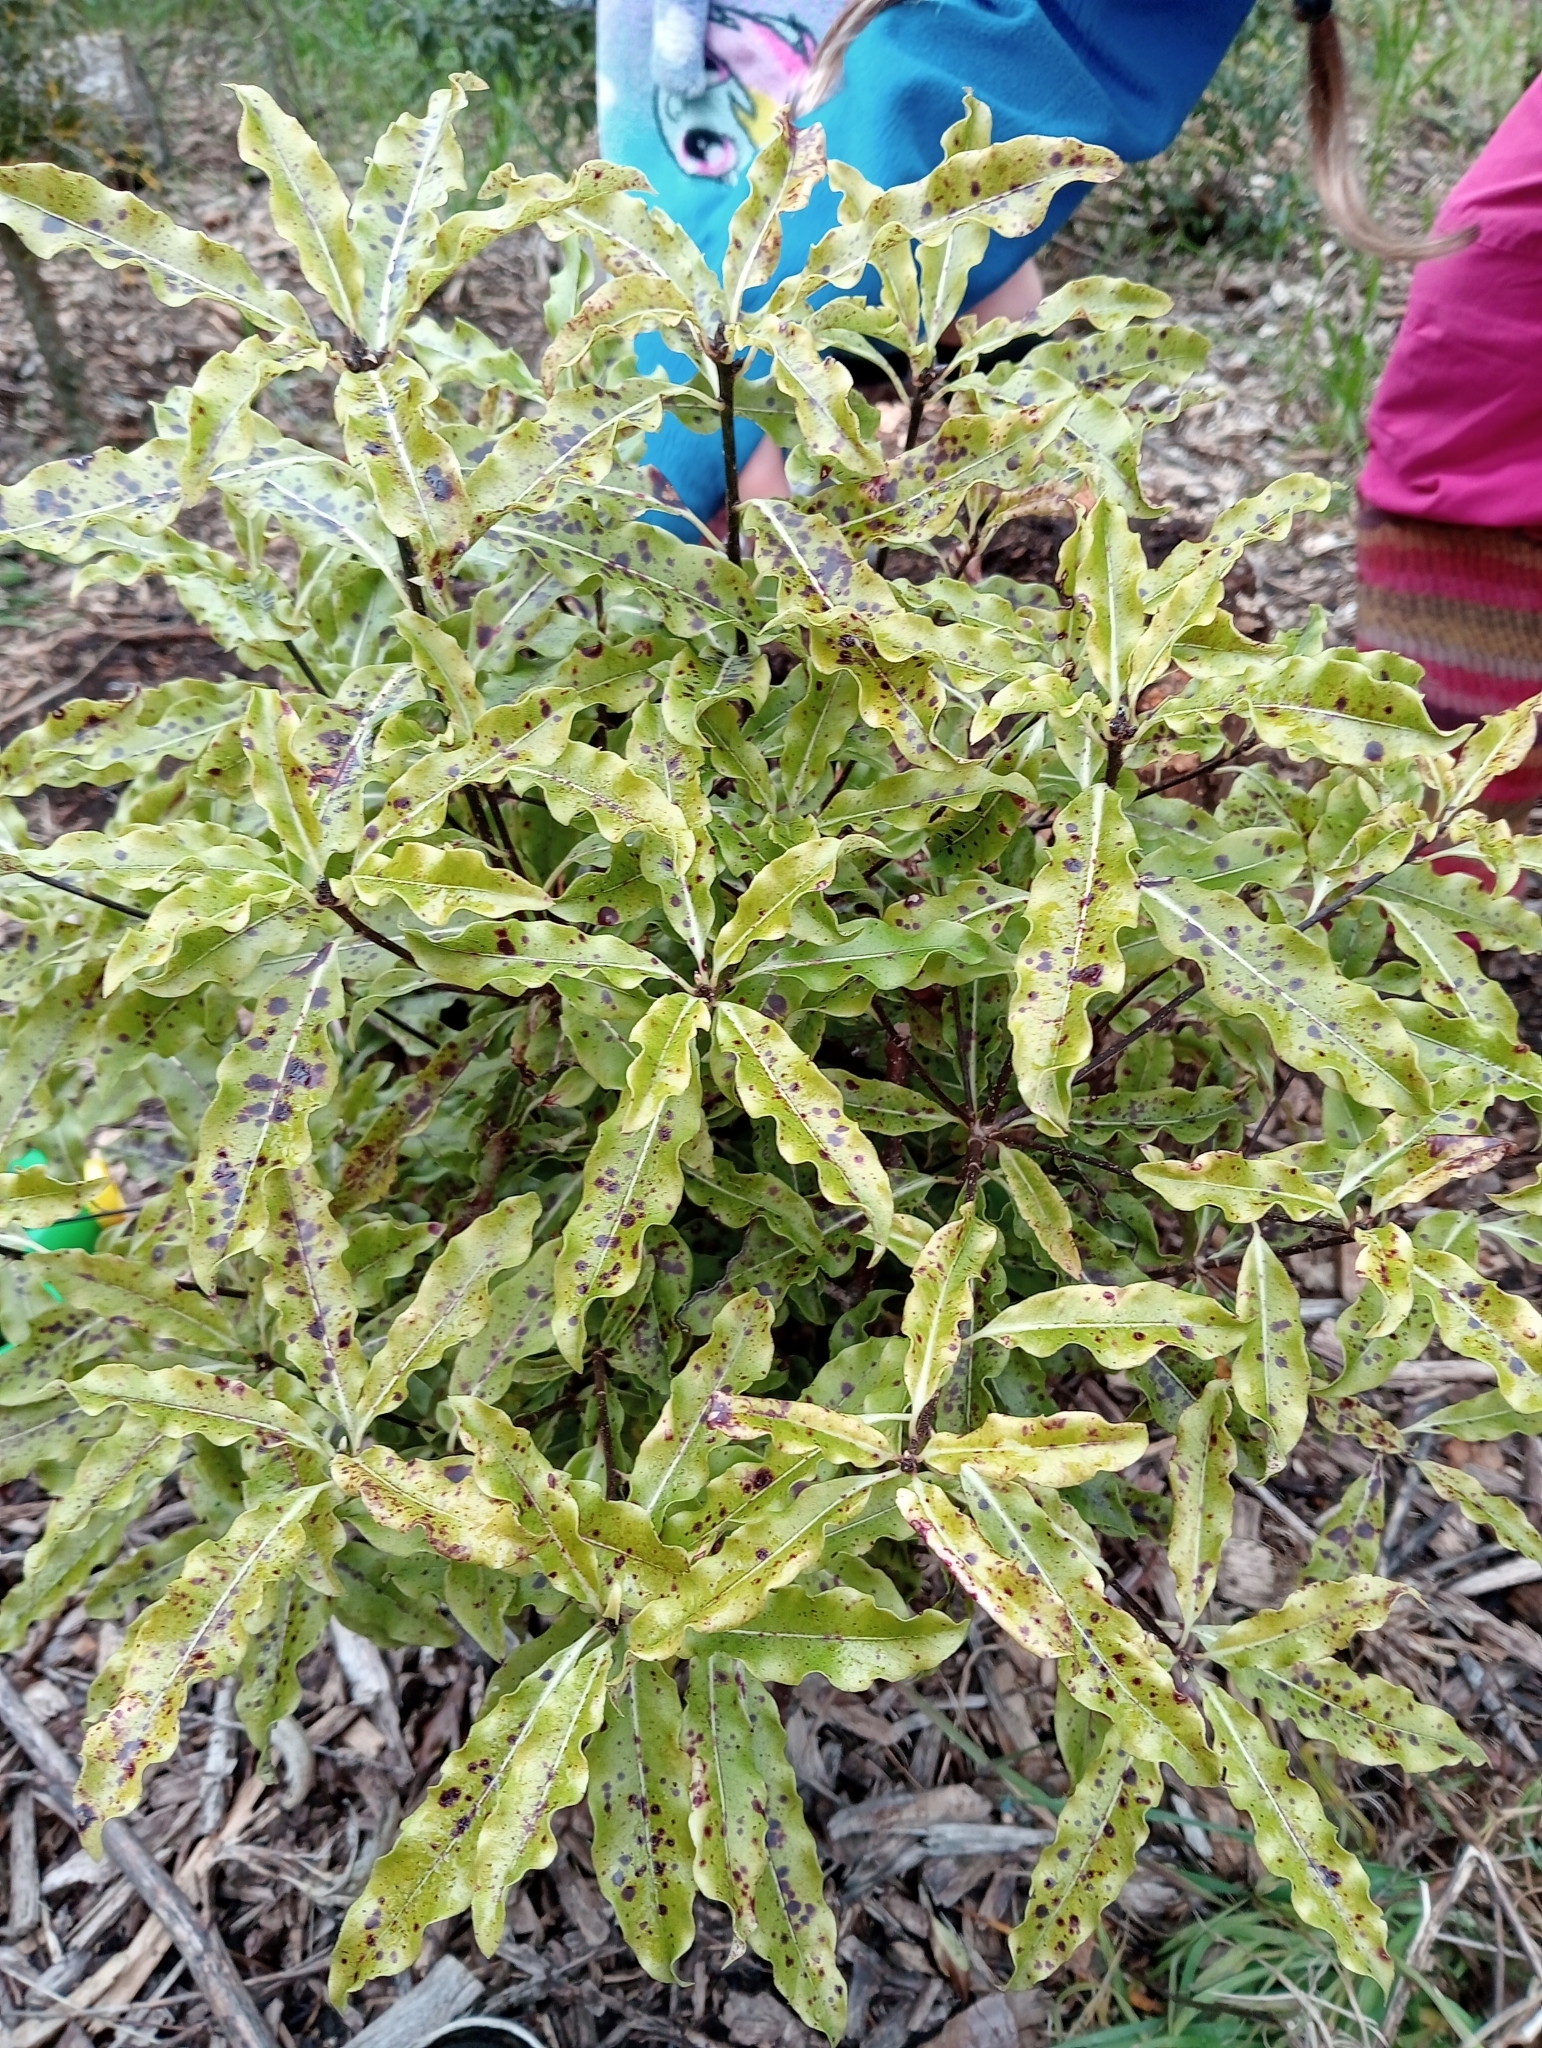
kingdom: Plantae
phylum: Tracheophyta
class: Magnoliopsida
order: Apiales
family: Pittosporaceae
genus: Pittosporum
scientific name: Pittosporum eugenioides
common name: Lemonwood
